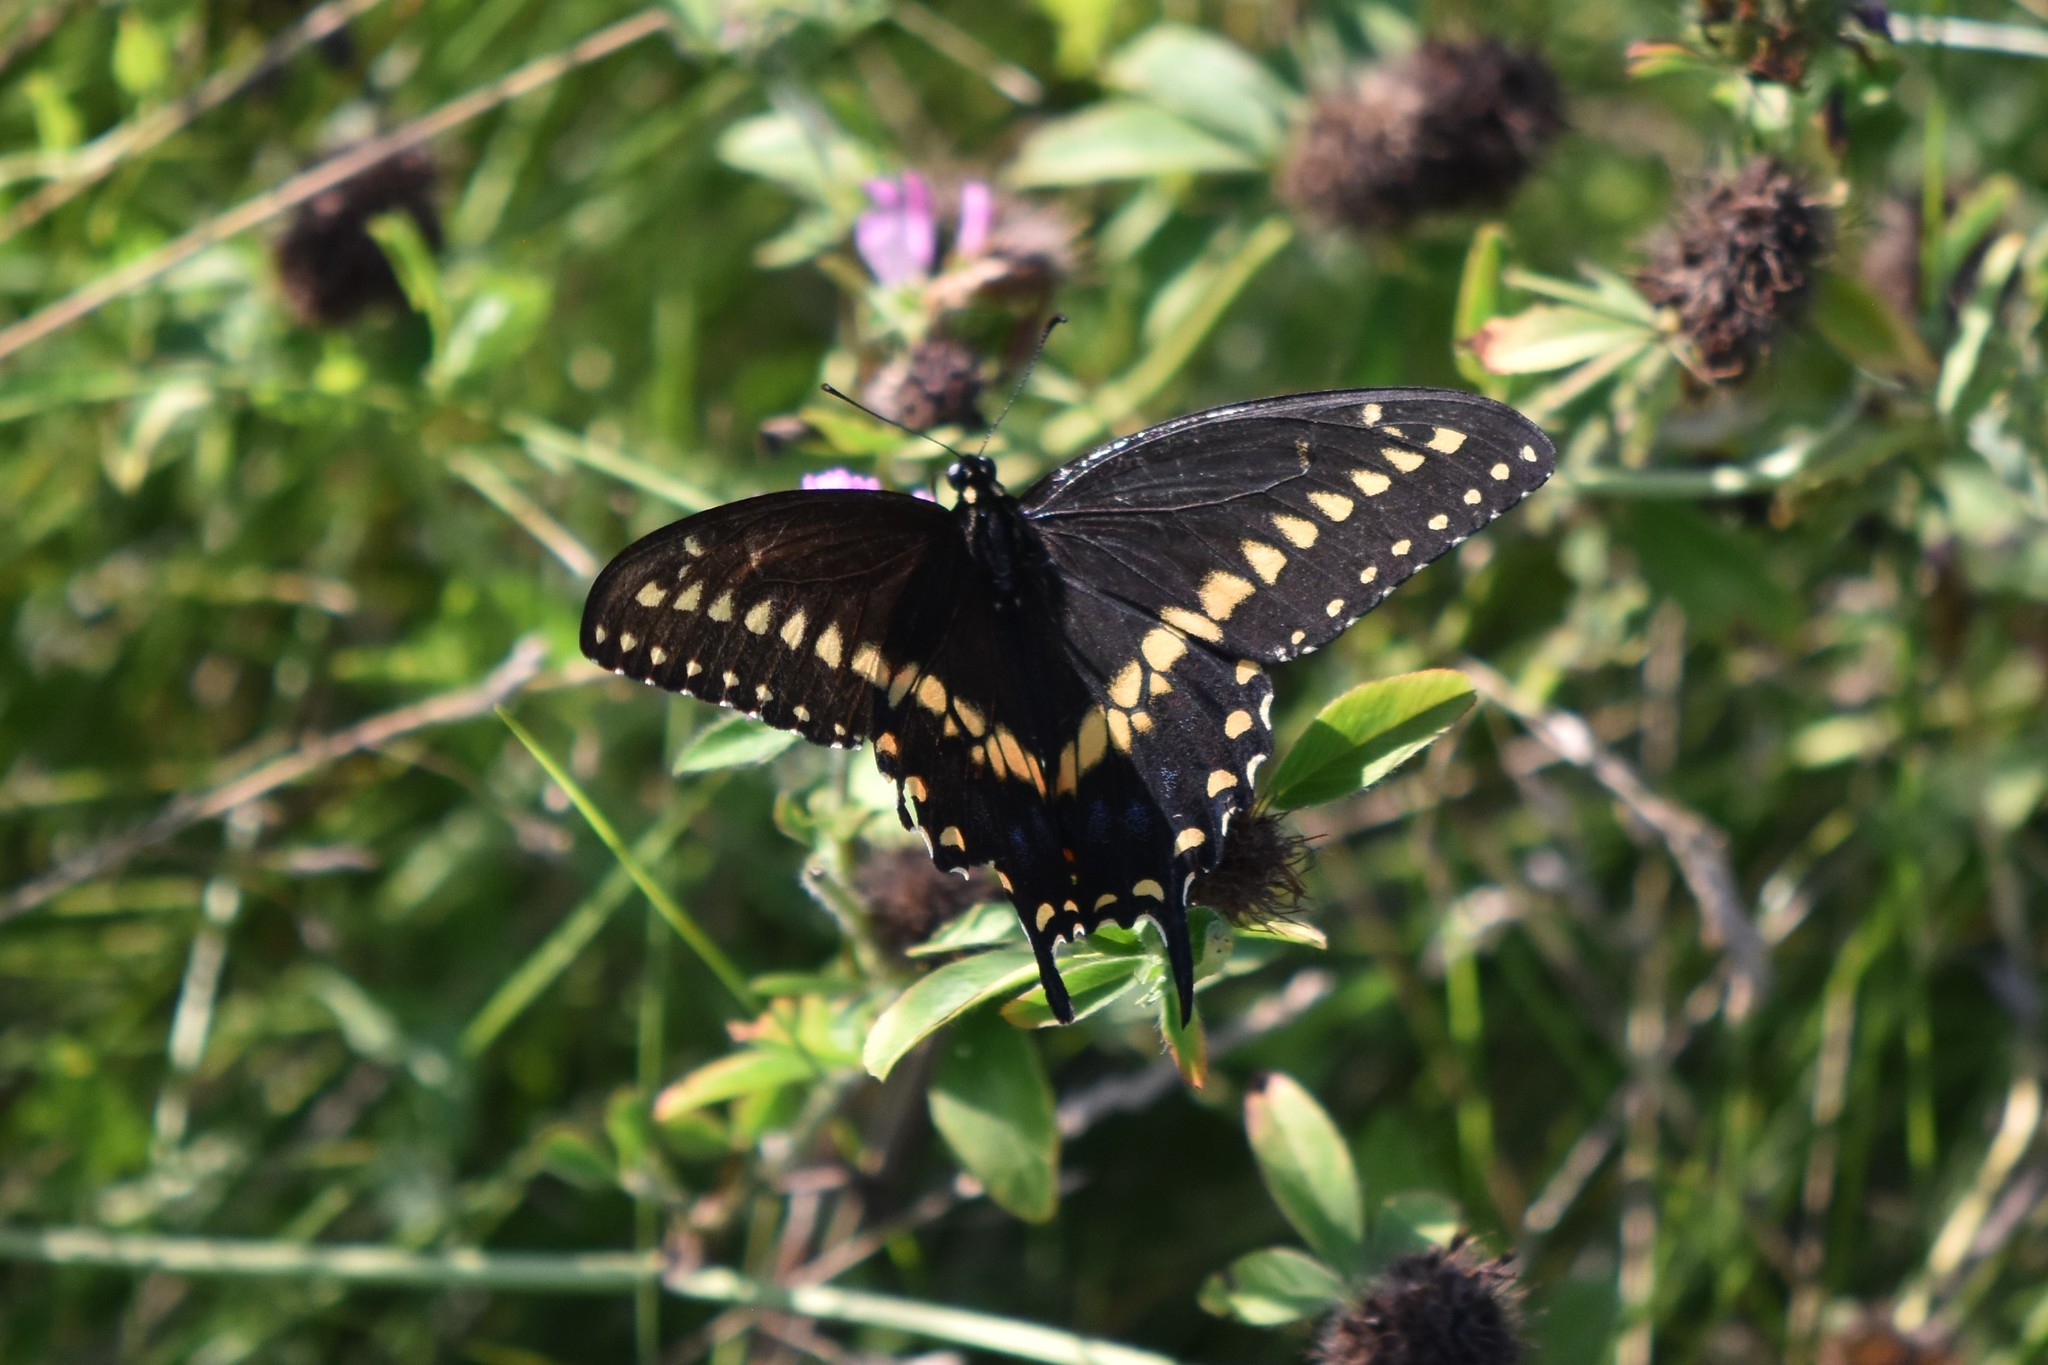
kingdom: Animalia
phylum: Arthropoda
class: Insecta
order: Lepidoptera
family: Papilionidae
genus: Papilio
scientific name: Papilio polyxenes
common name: Black swallowtail
